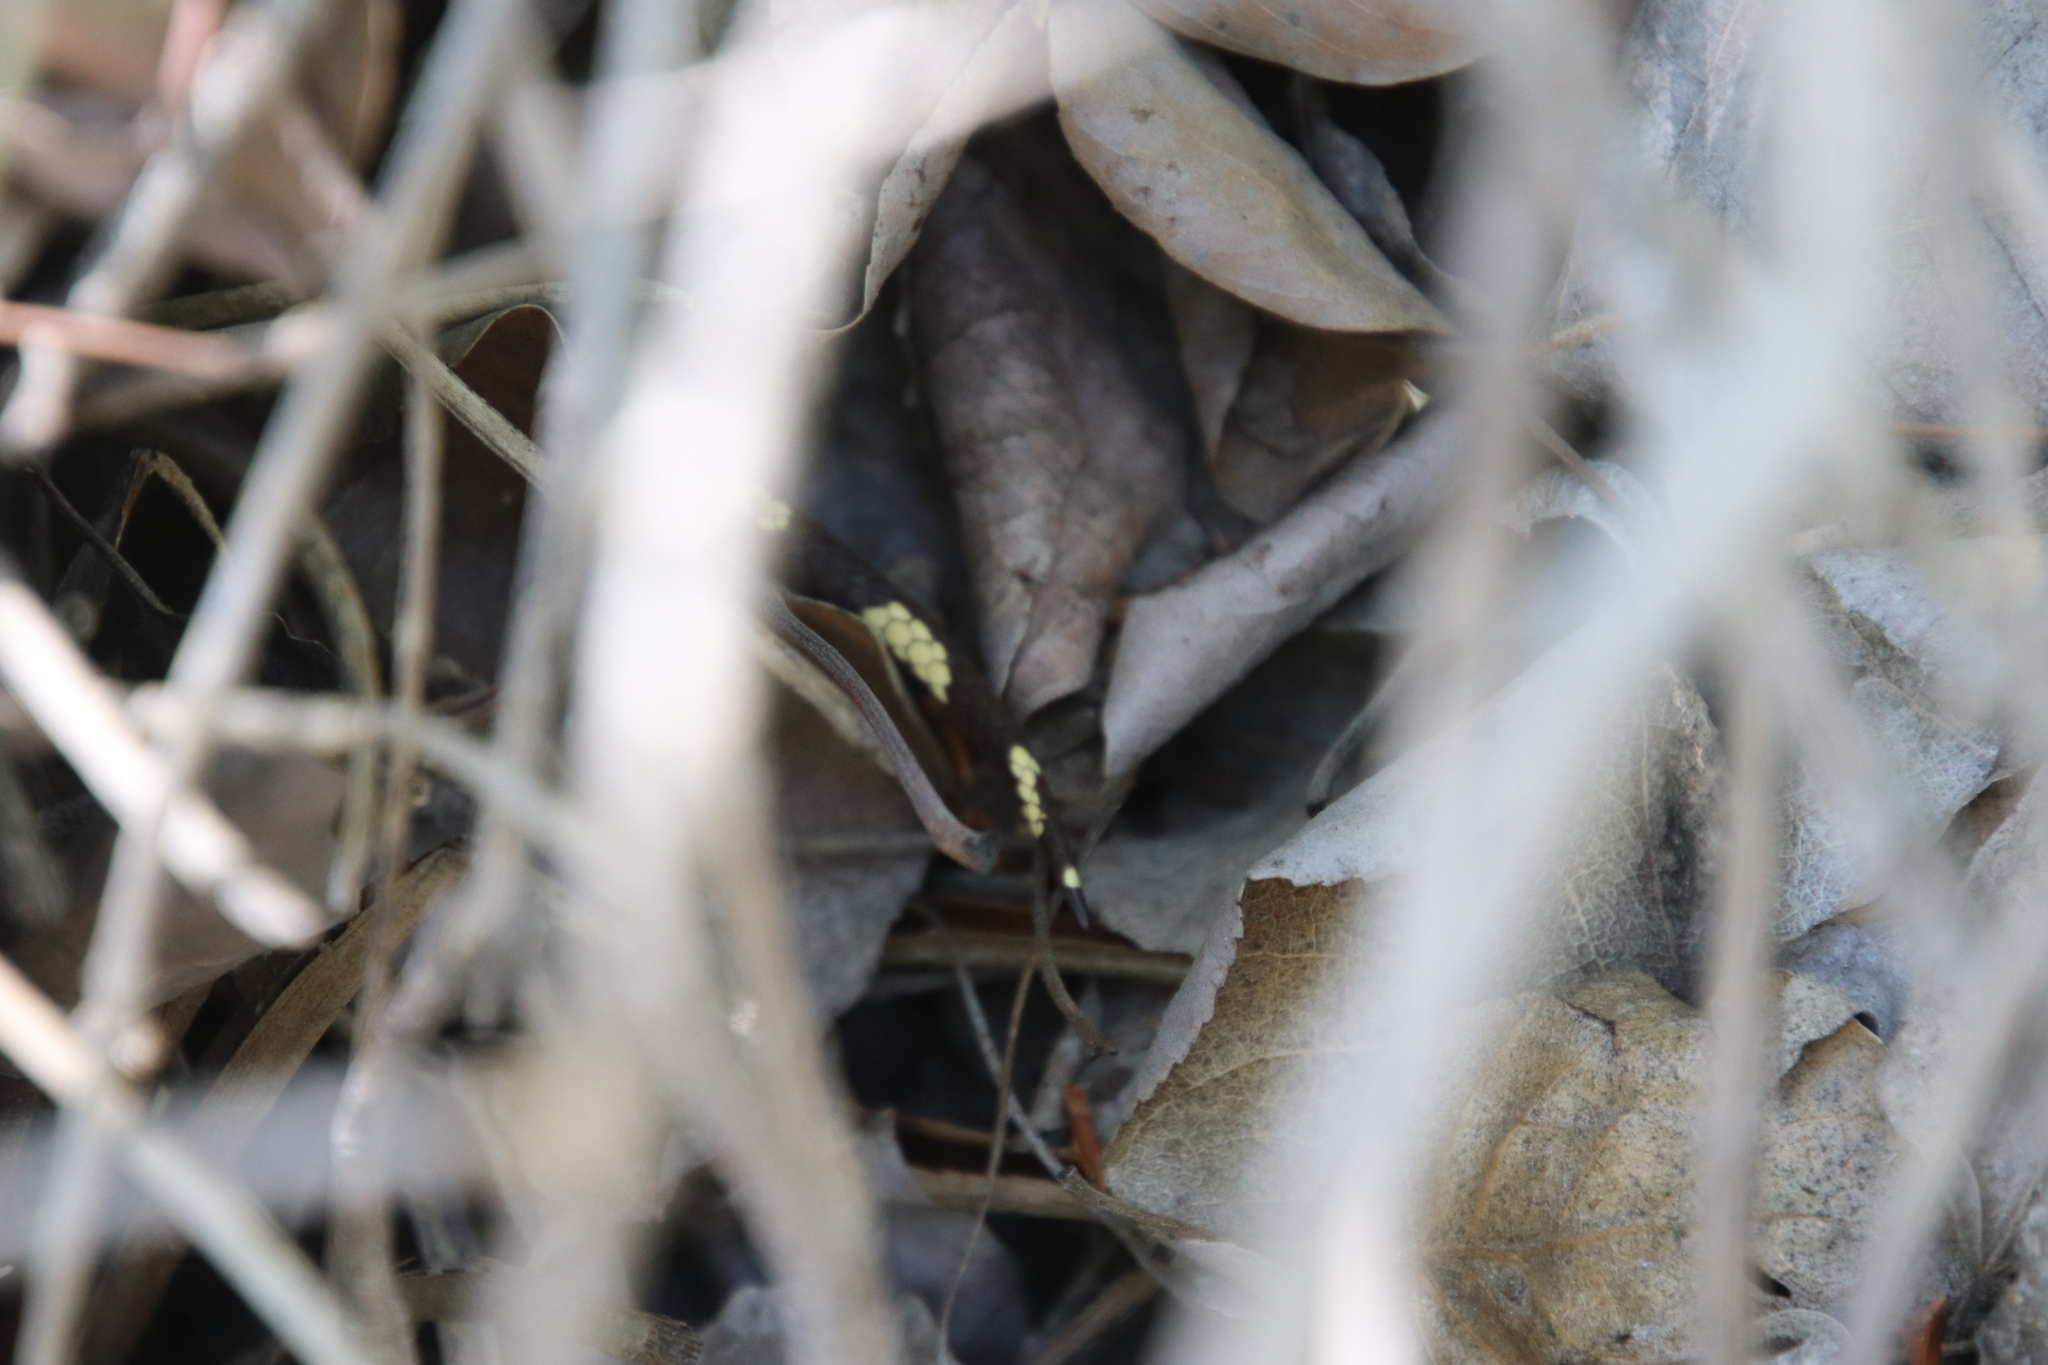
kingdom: Animalia
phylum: Chordata
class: Squamata
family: Colubridae
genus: Lampropeltis
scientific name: Lampropeltis californiae
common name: California kingsnake
